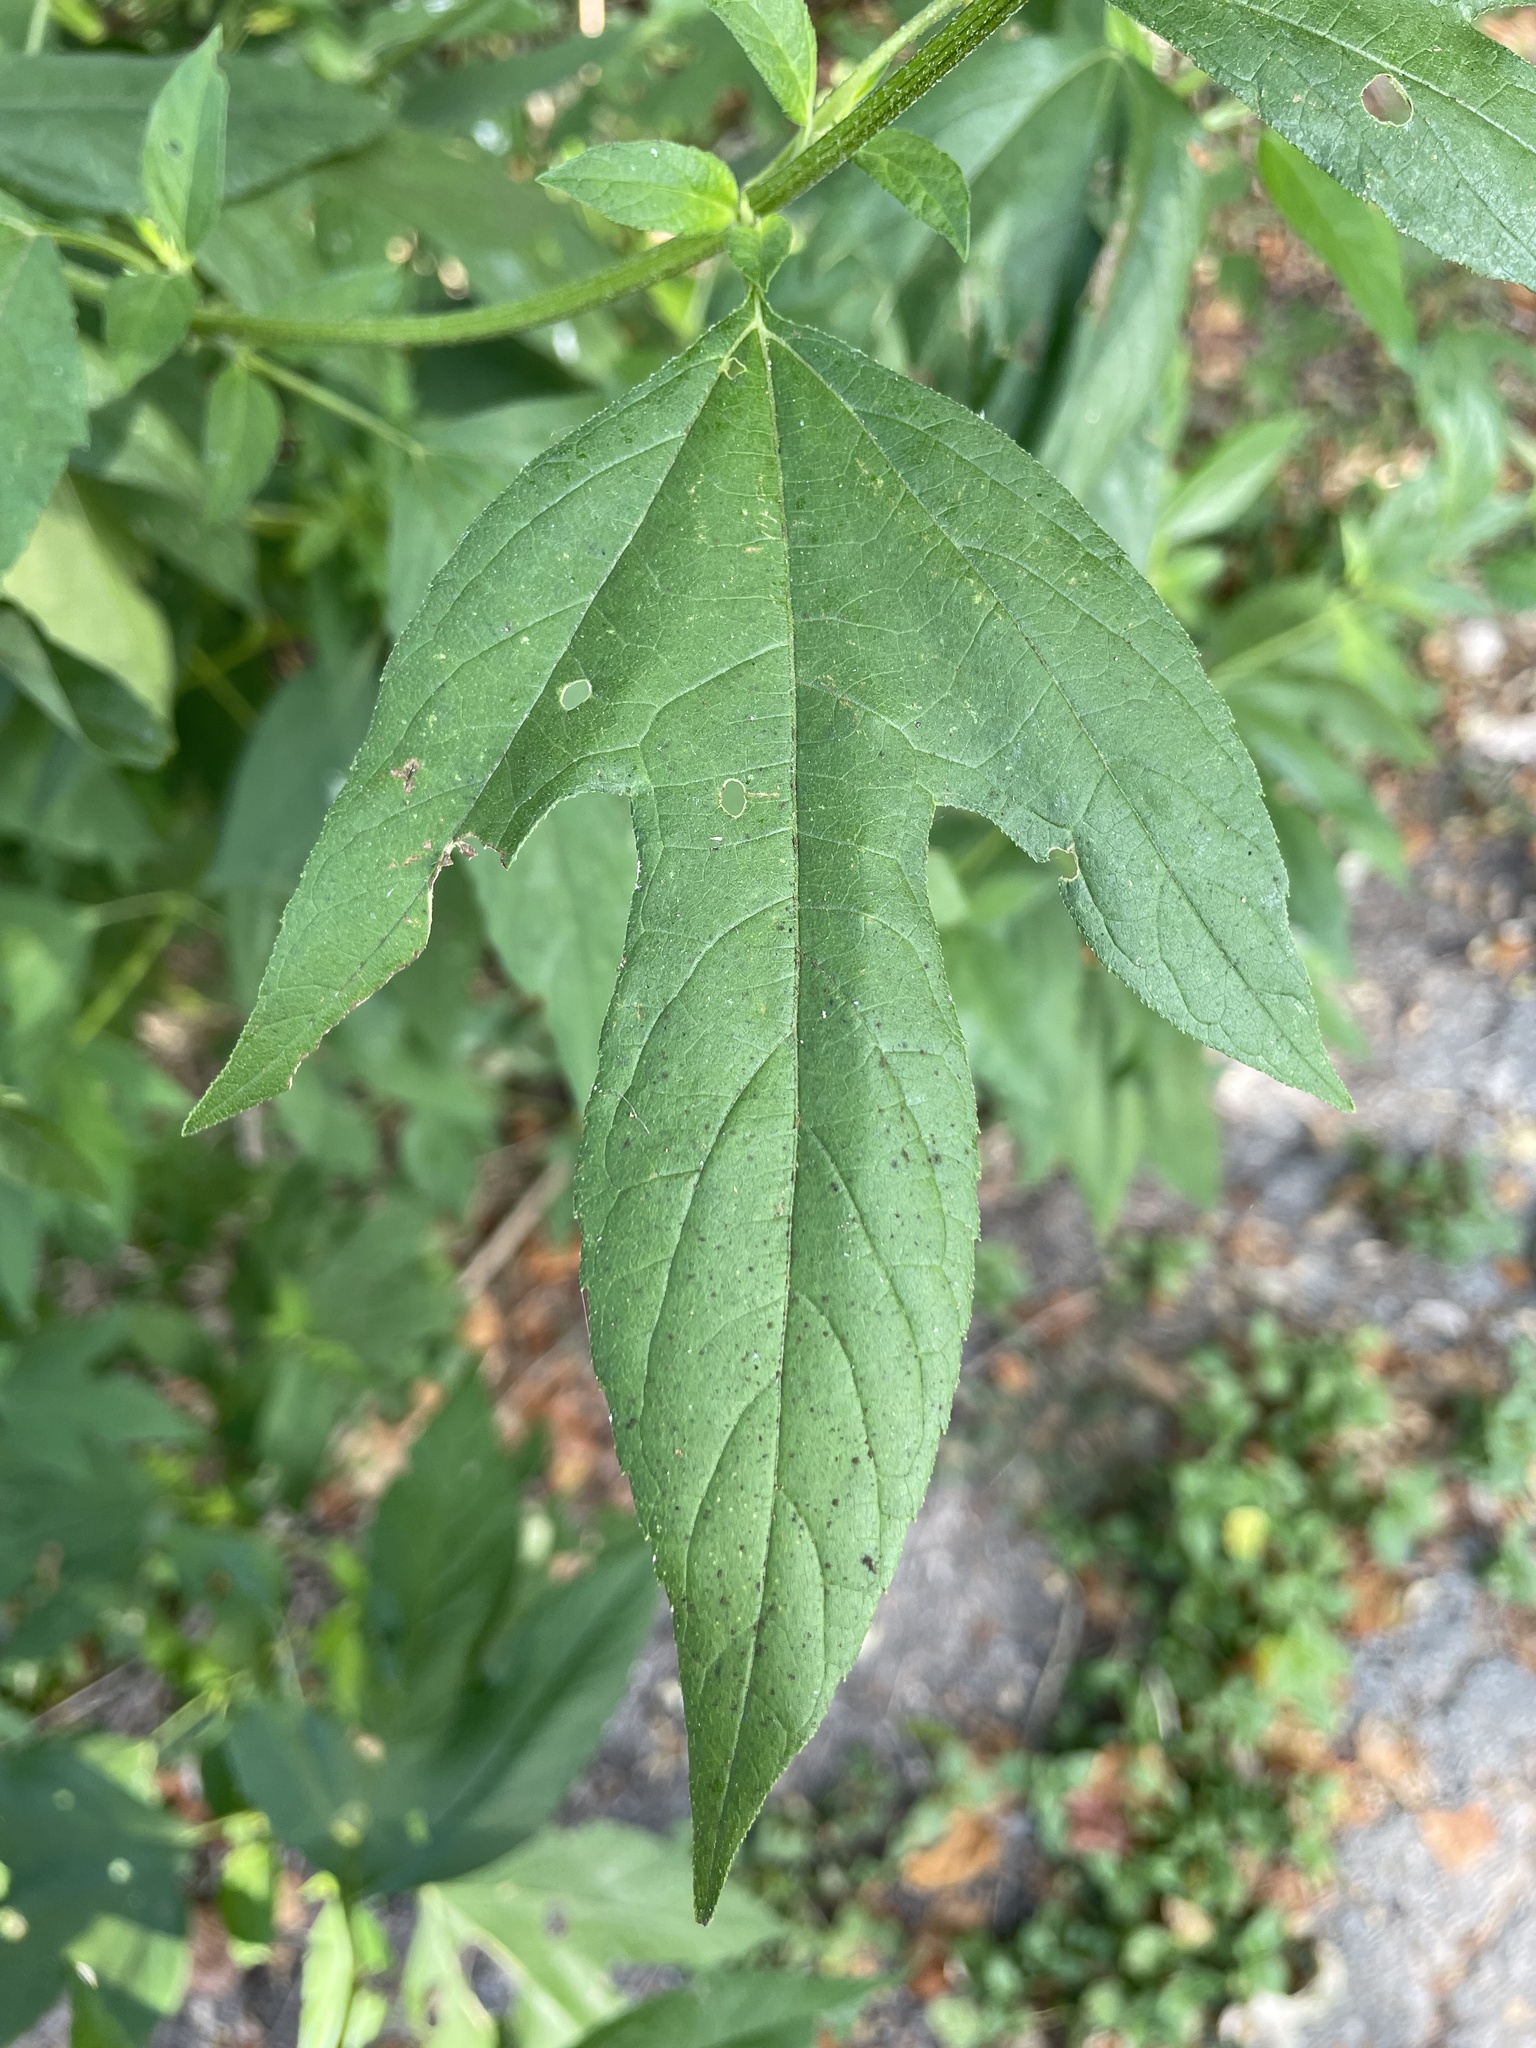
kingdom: Plantae
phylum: Tracheophyta
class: Magnoliopsida
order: Asterales
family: Asteraceae
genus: Ambrosia
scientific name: Ambrosia trifida
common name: Giant ragweed
